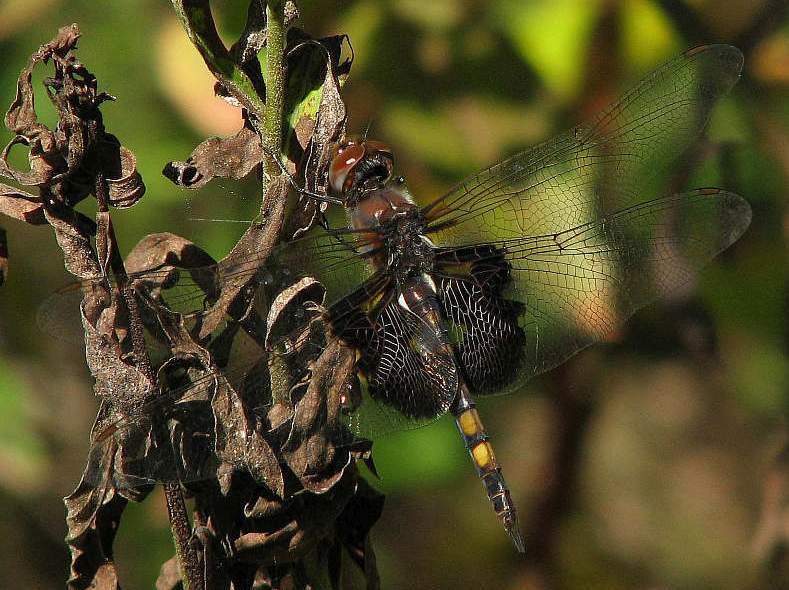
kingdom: Animalia
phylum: Arthropoda
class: Insecta
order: Odonata
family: Libellulidae
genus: Tramea
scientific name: Tramea lacerata
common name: Black saddlebags
